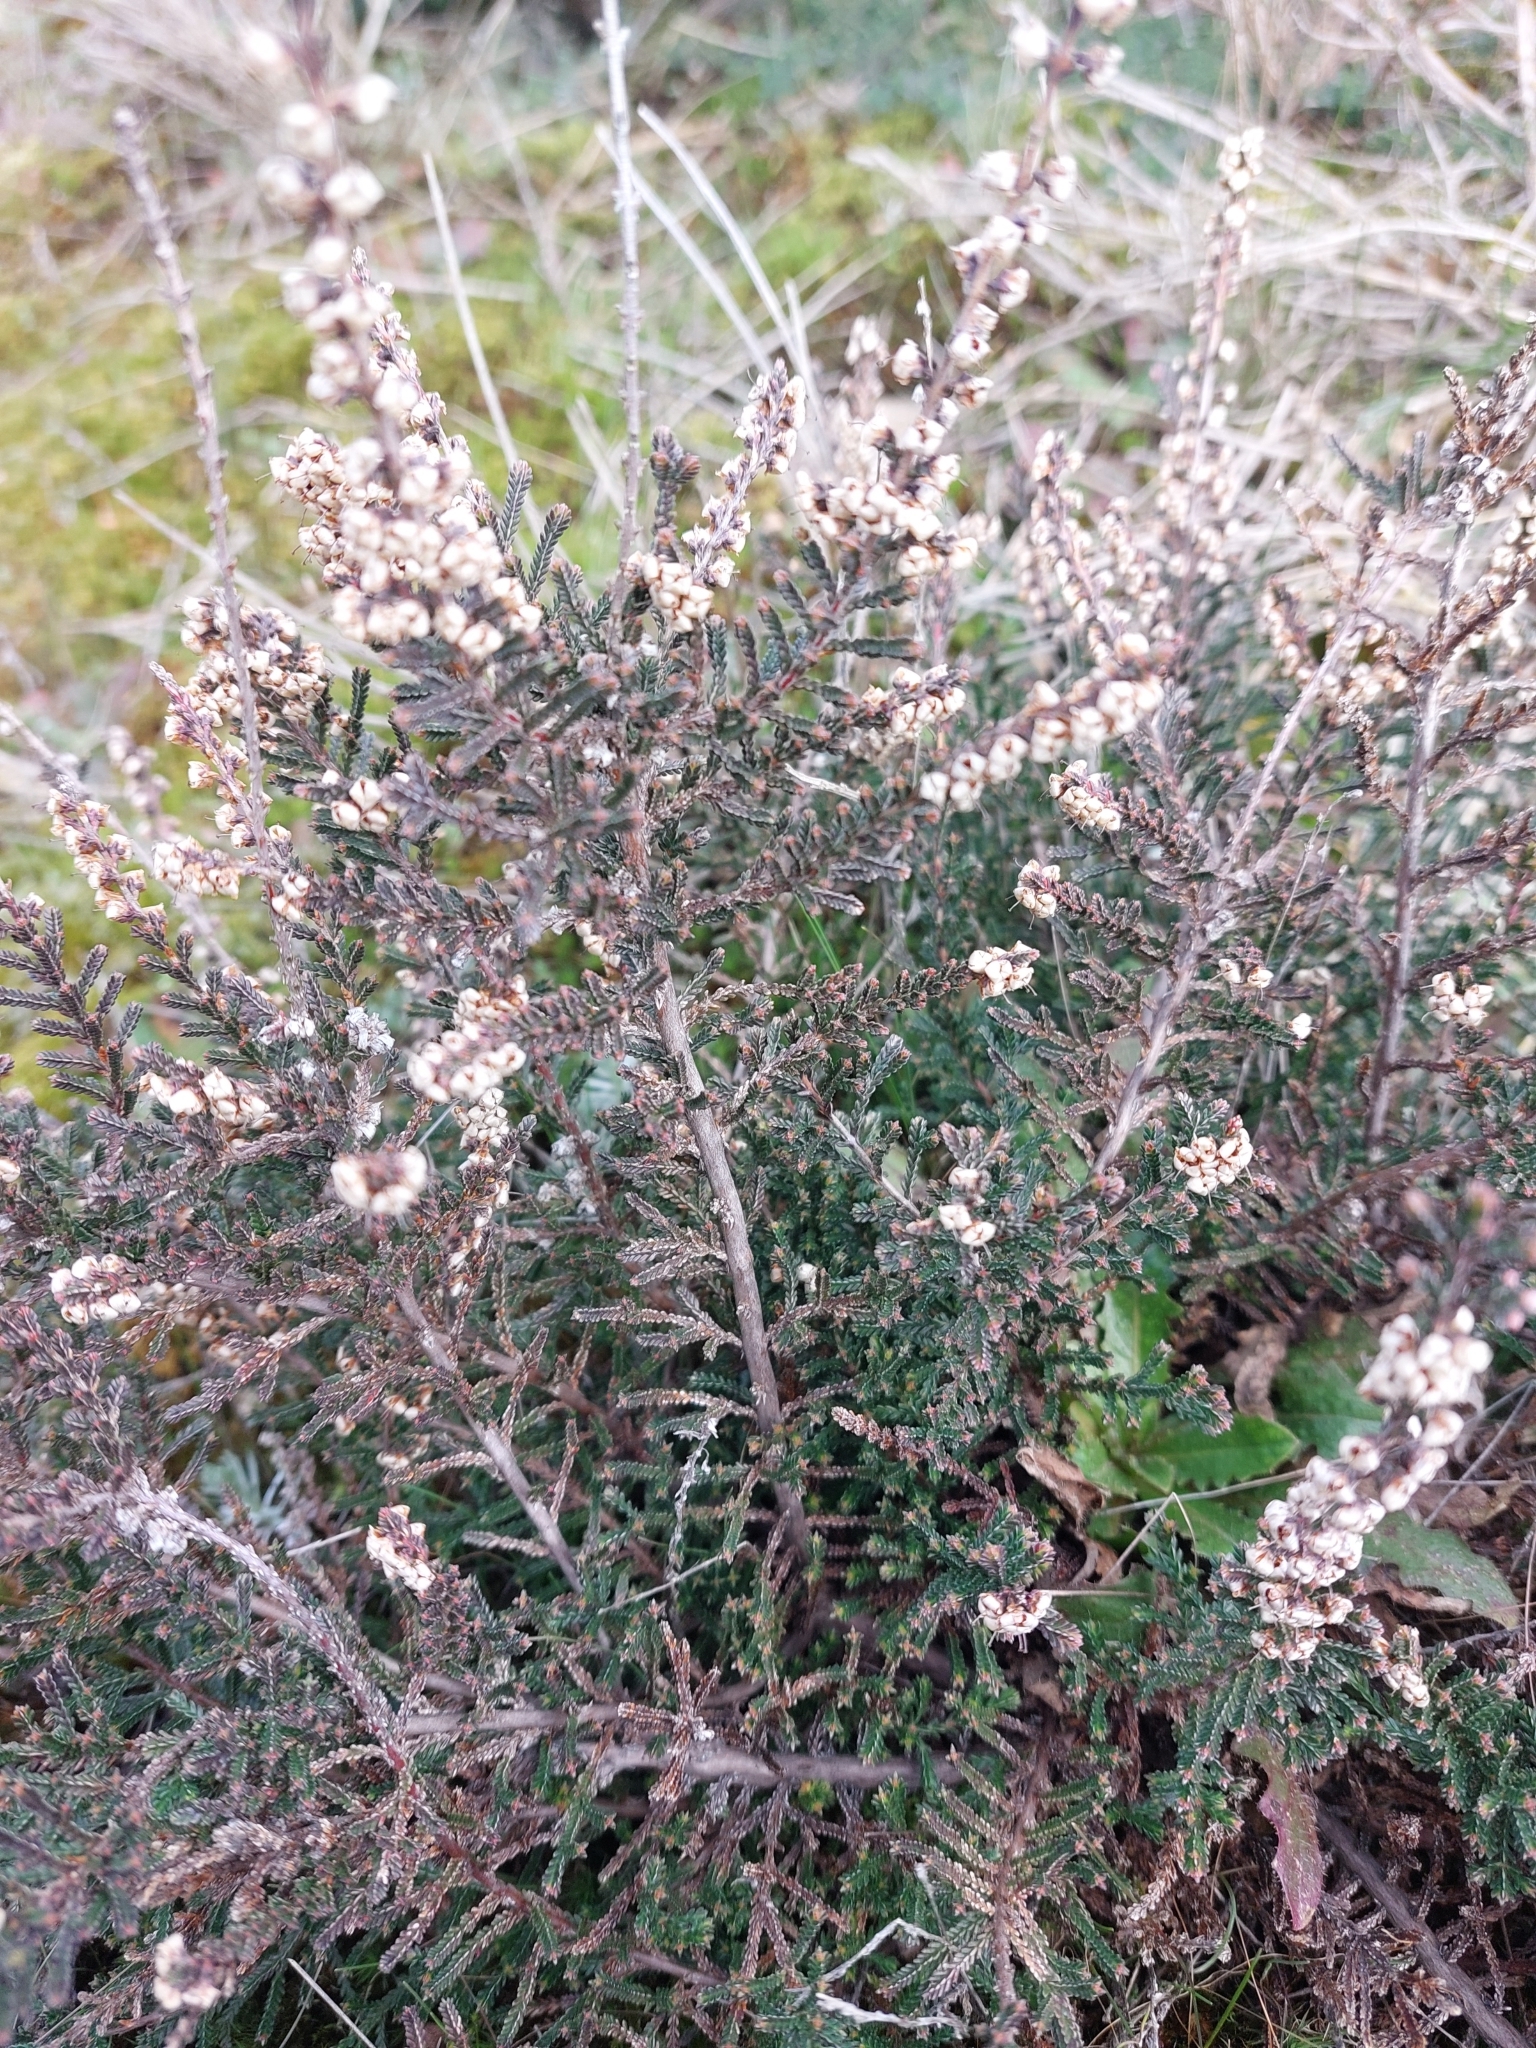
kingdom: Plantae
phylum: Tracheophyta
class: Magnoliopsida
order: Ericales
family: Ericaceae
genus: Calluna
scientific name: Calluna vulgaris
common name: Heather
